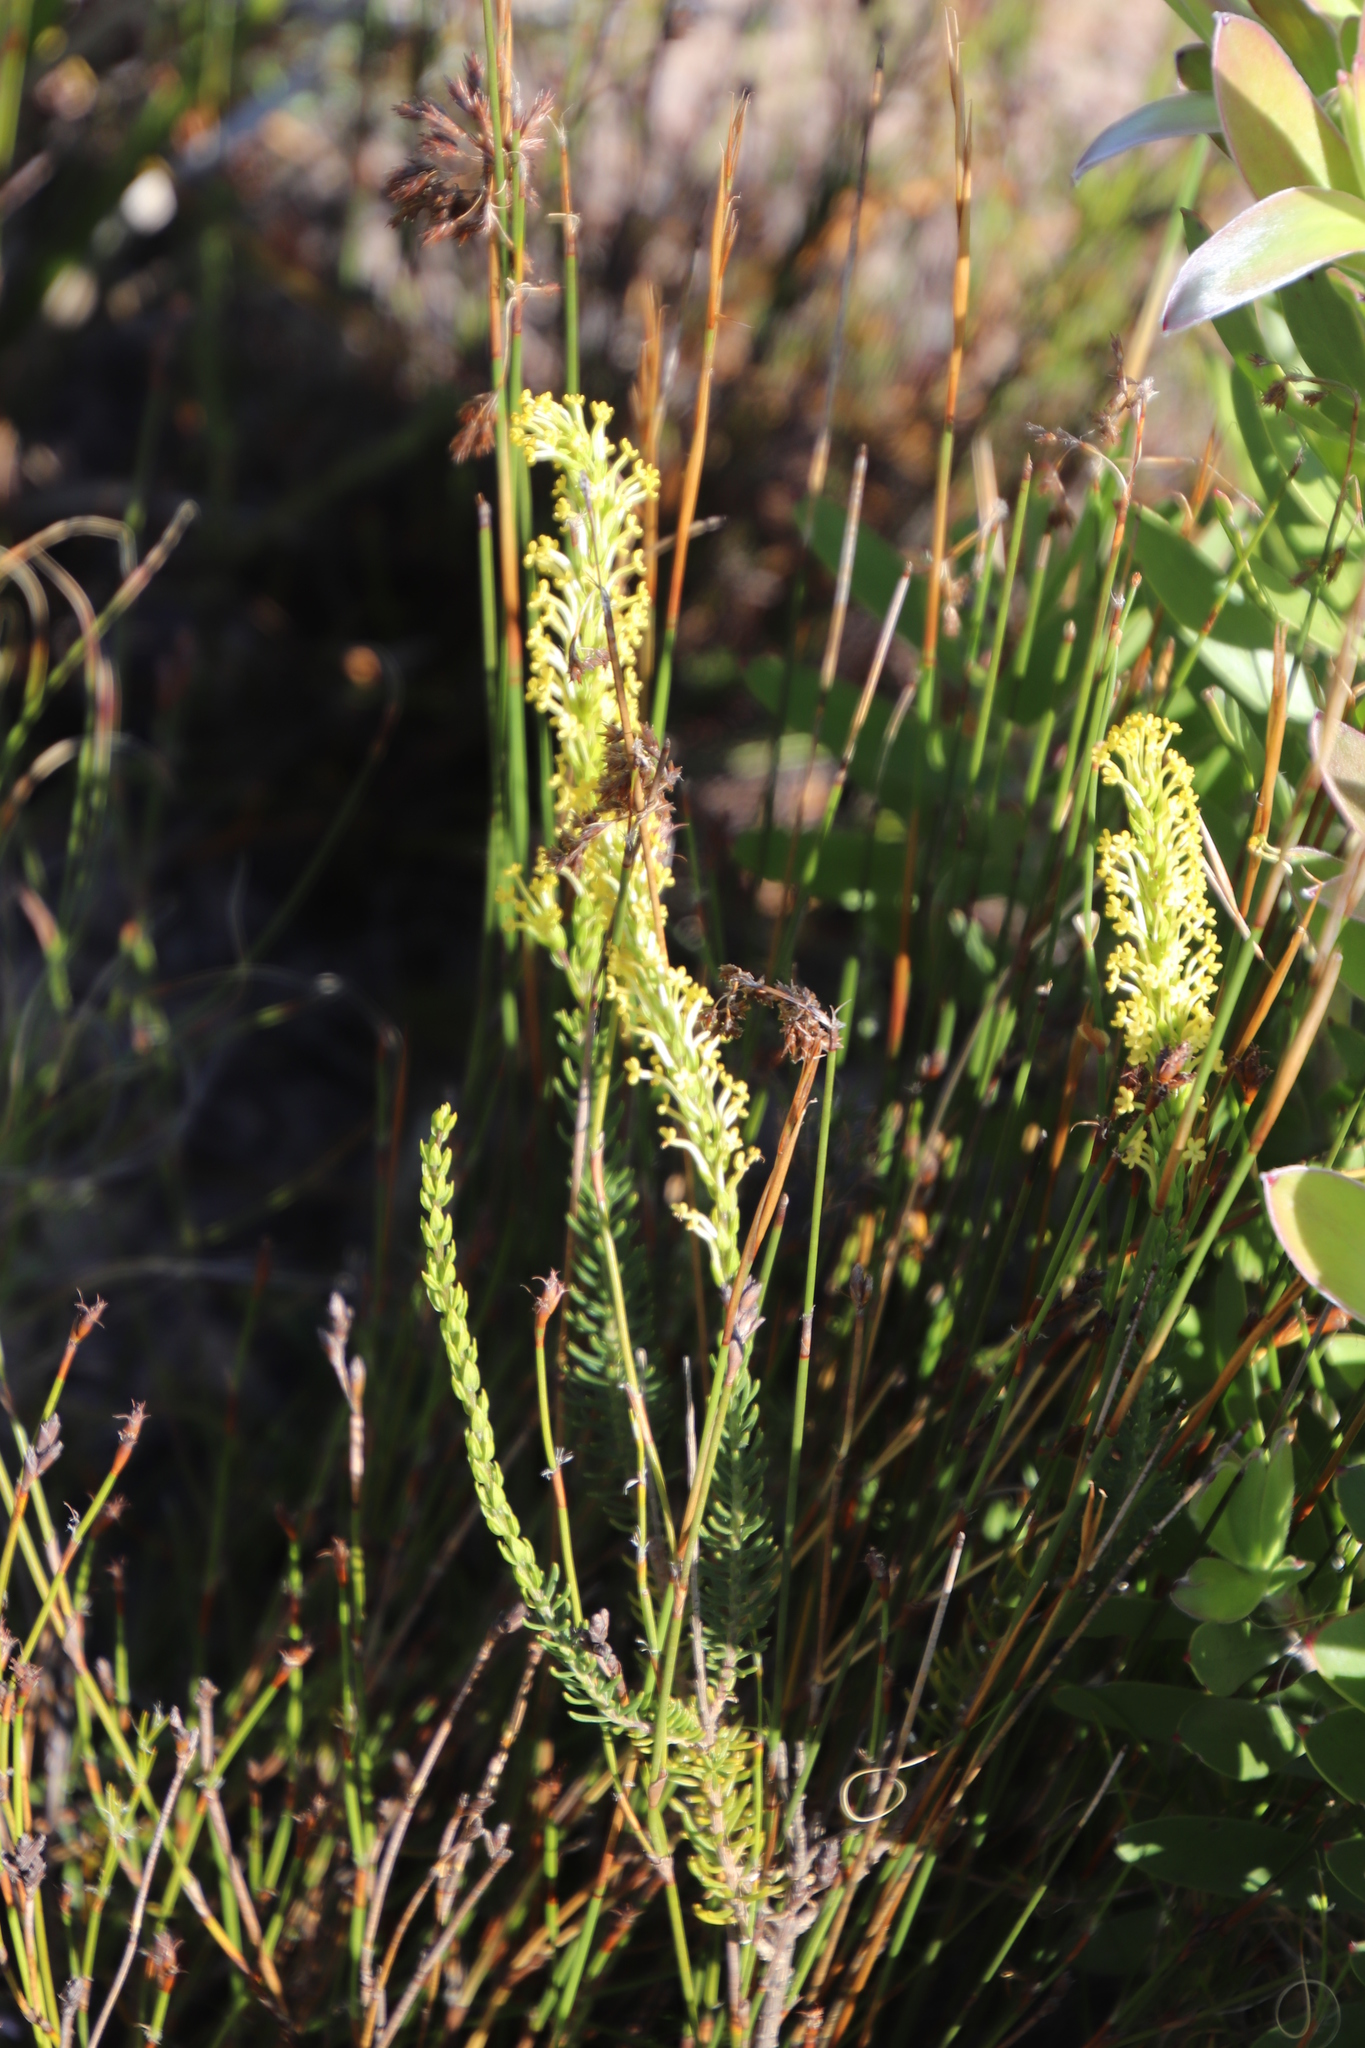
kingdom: Plantae
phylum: Tracheophyta
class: Magnoliopsida
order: Lamiales
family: Scrophulariaceae
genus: Microdon
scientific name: Microdon dubius
